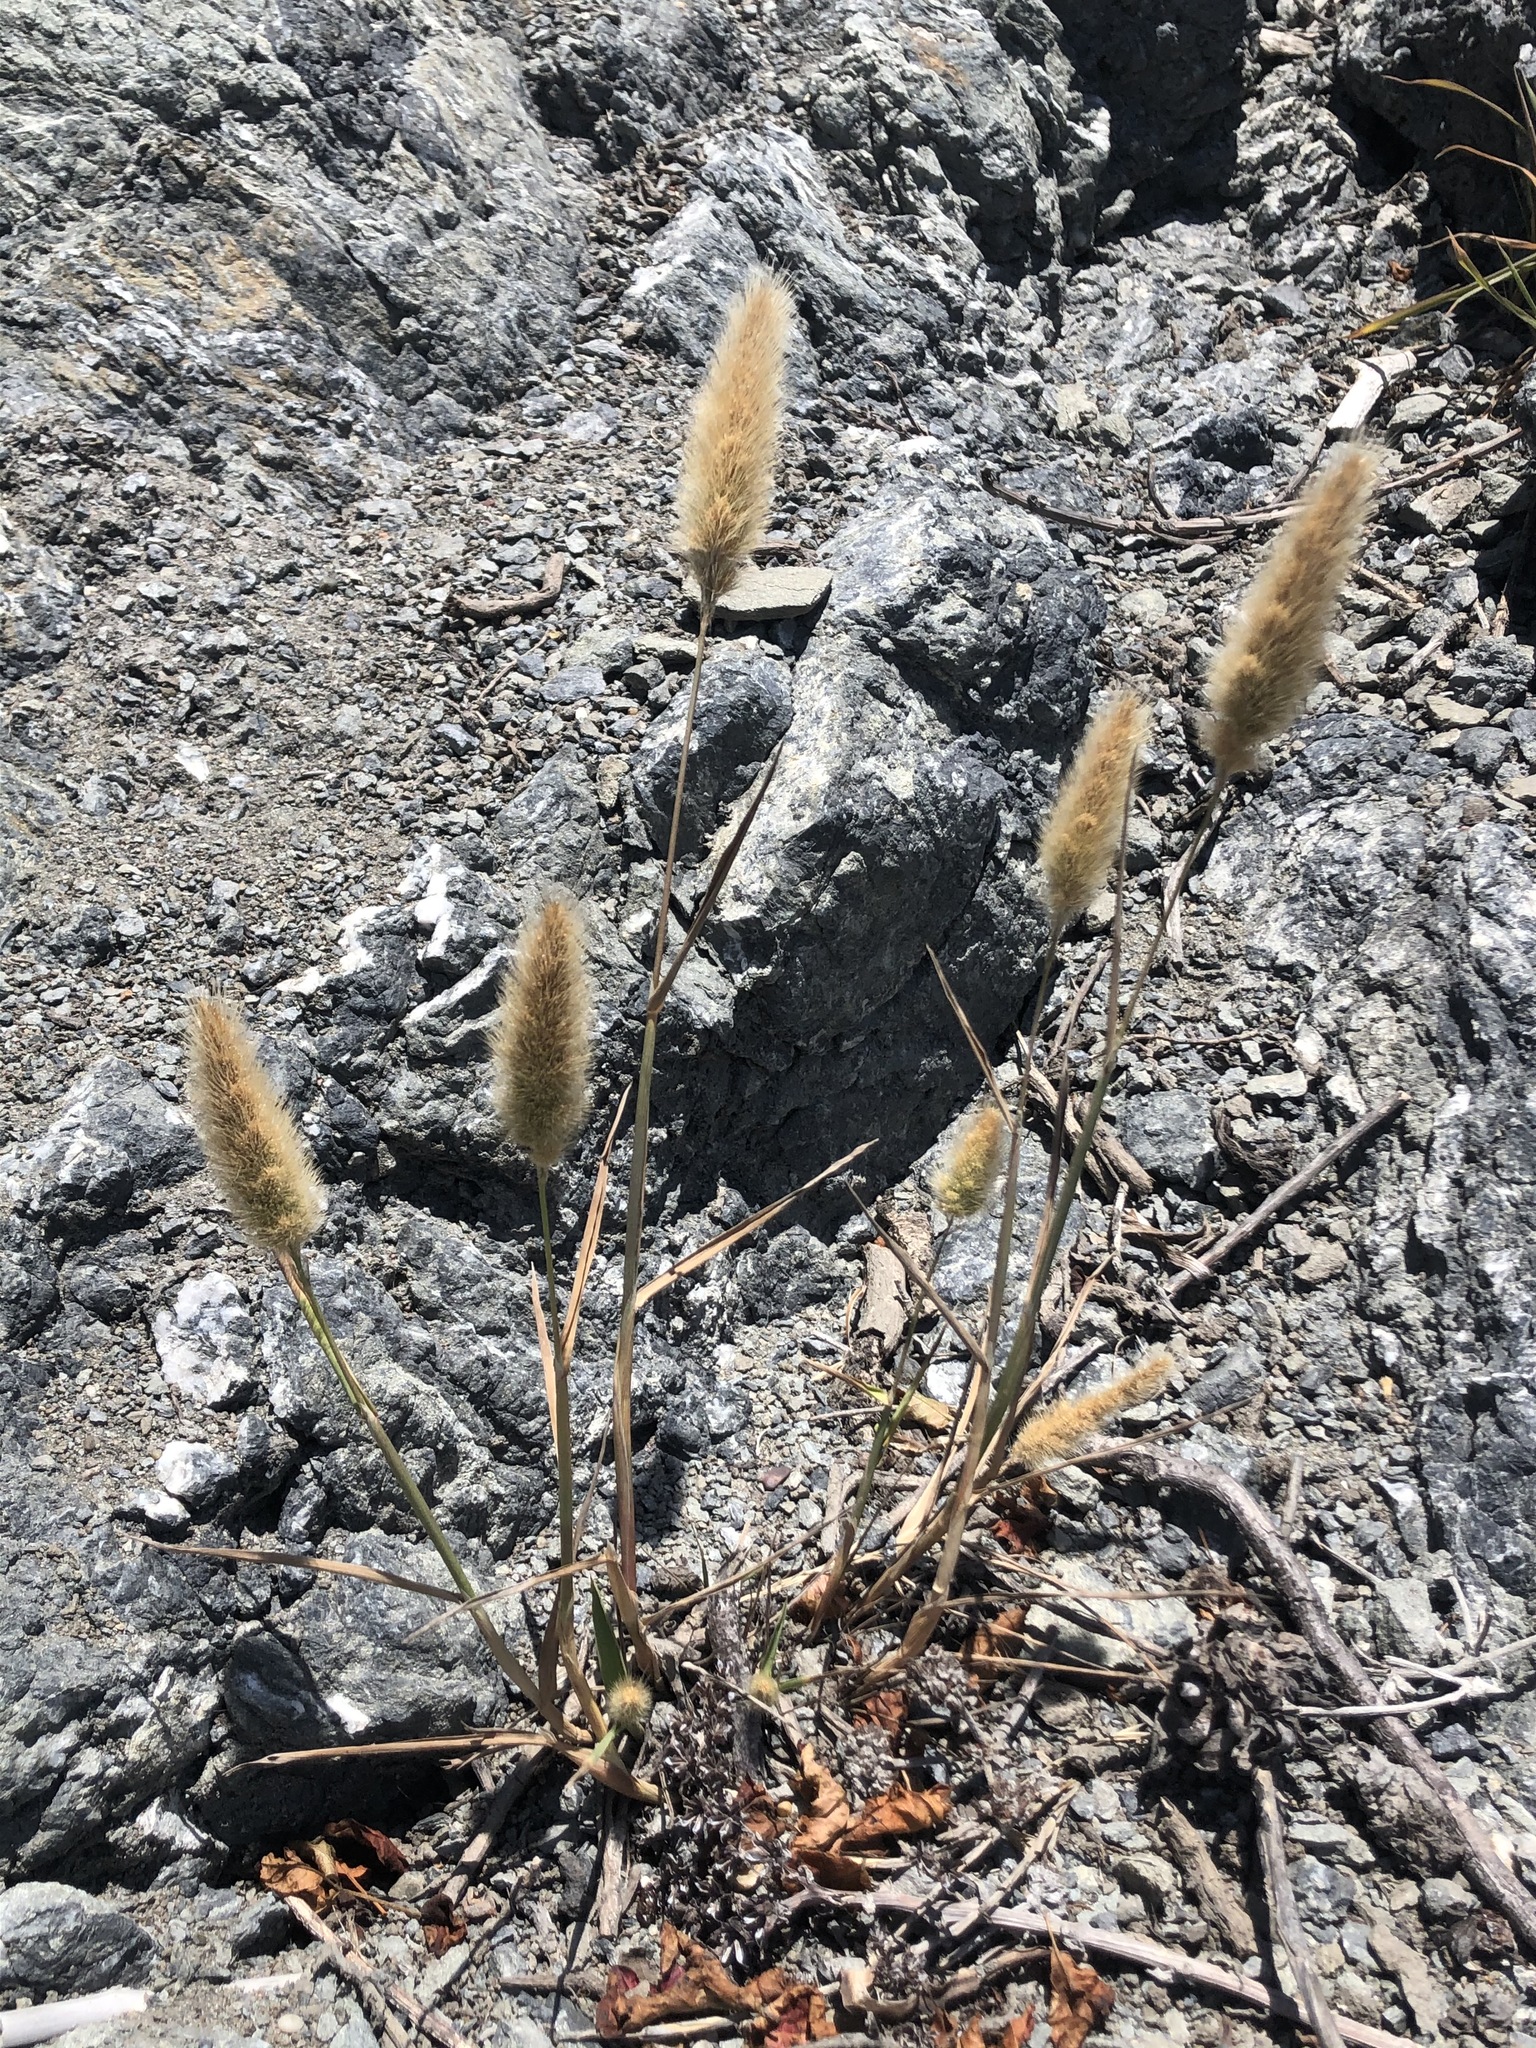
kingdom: Plantae
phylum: Tracheophyta
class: Liliopsida
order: Poales
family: Poaceae
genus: Polypogon
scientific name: Polypogon monspeliensis
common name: Annual rabbitsfoot grass
